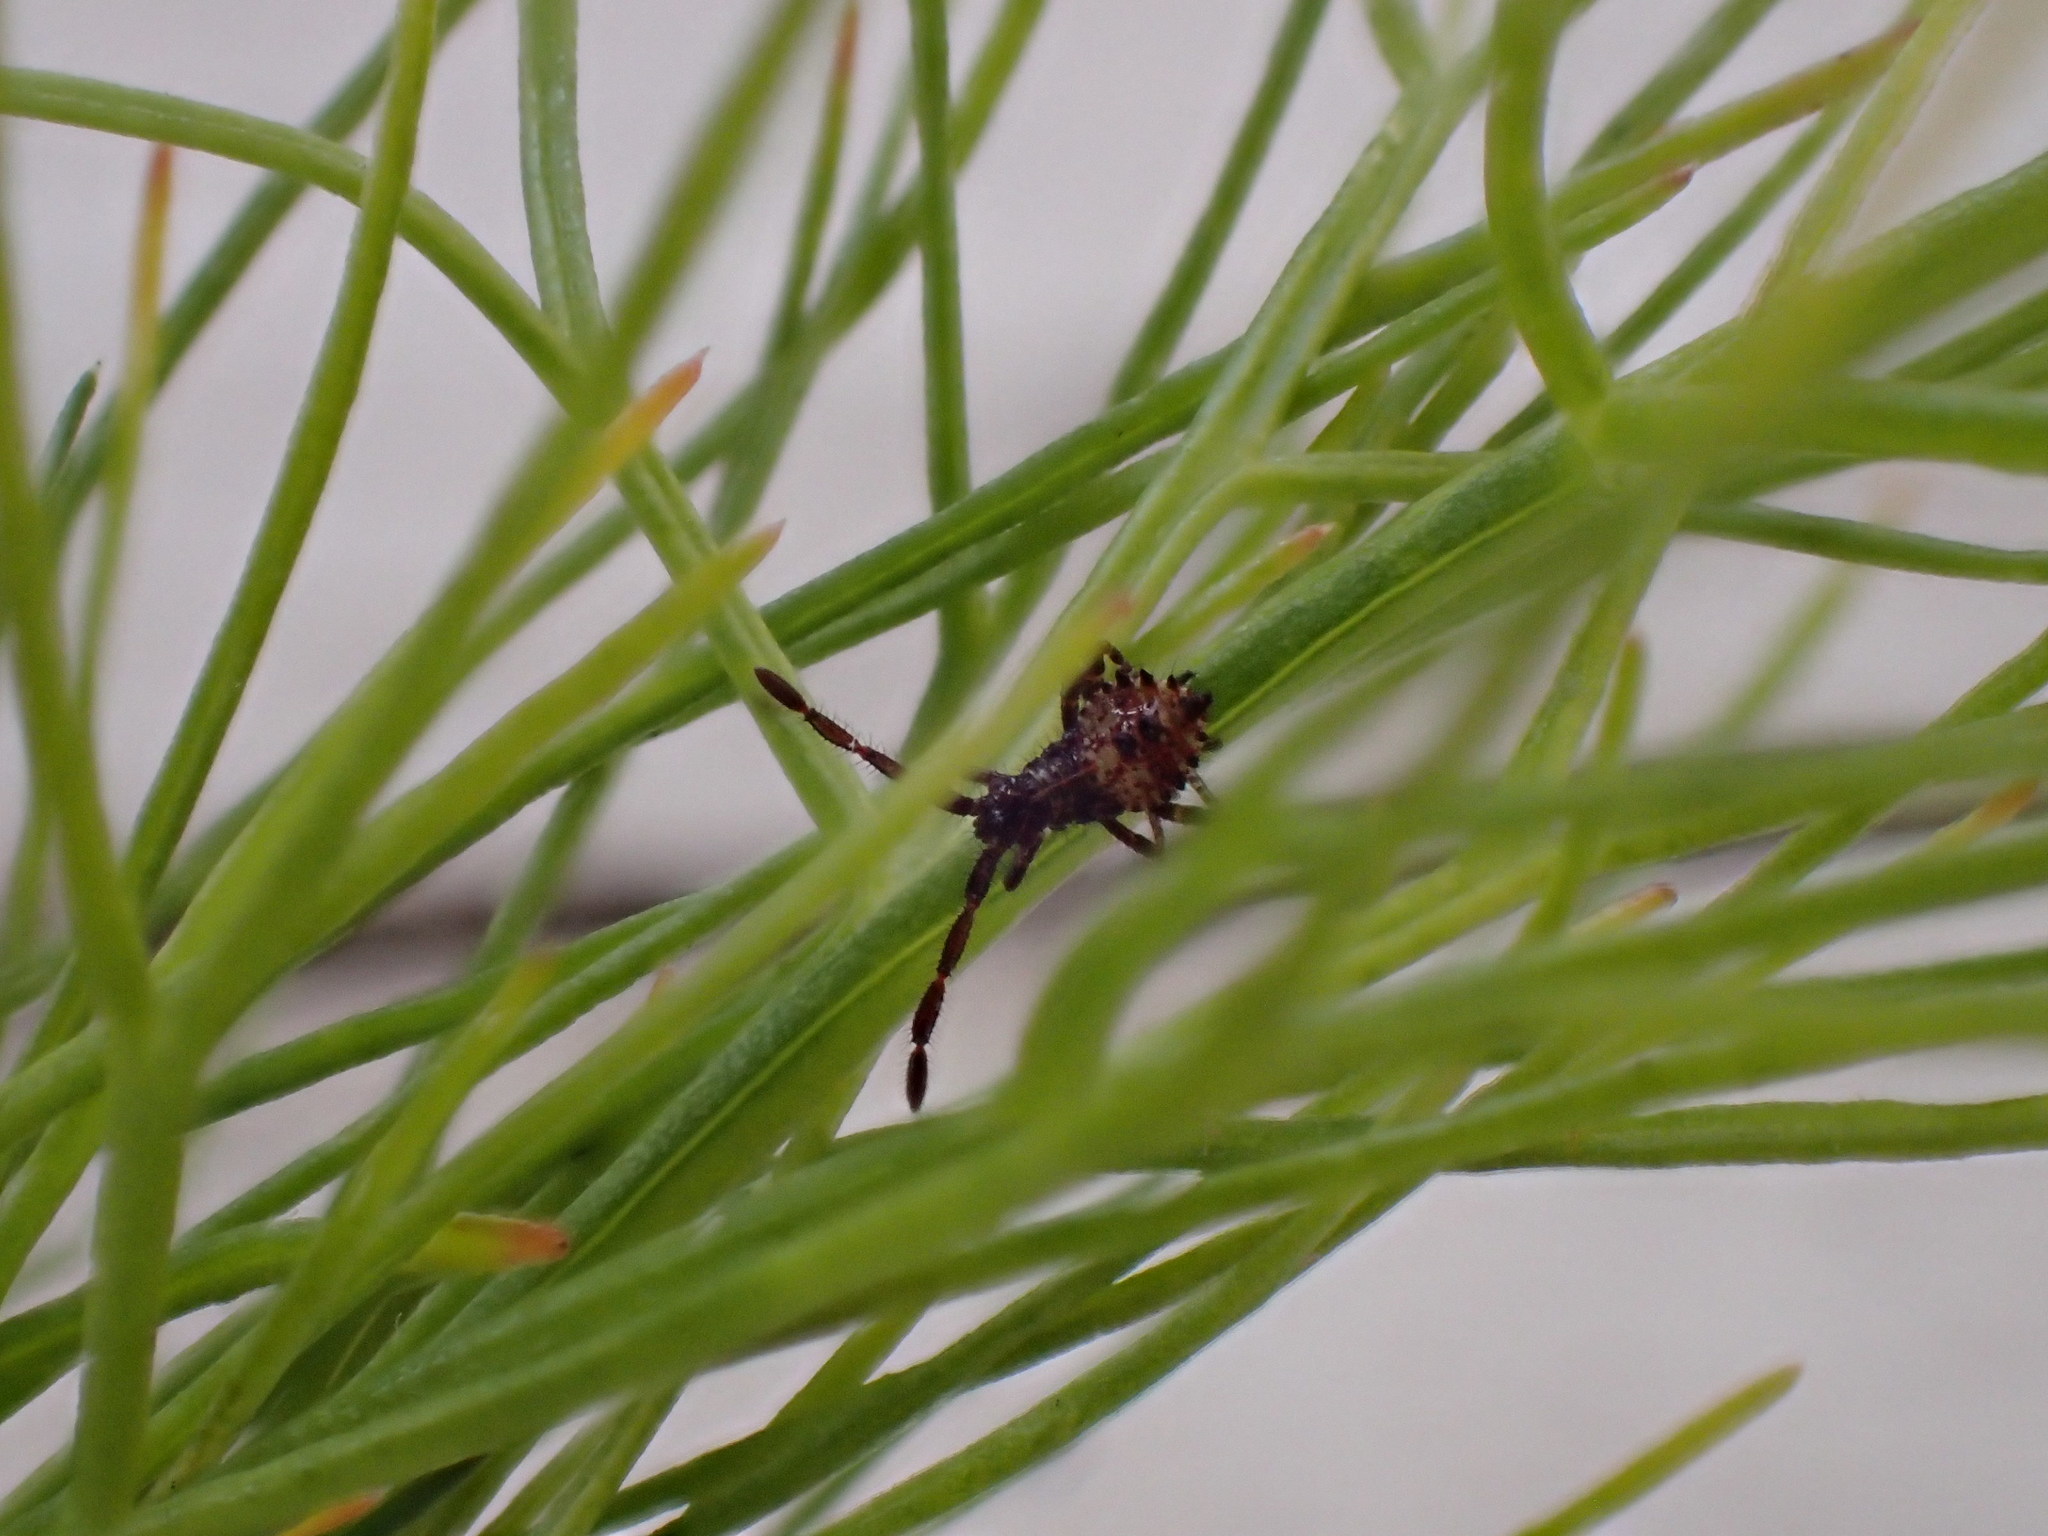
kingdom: Animalia
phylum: Arthropoda
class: Insecta
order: Hemiptera
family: Coreidae
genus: Coreus
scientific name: Coreus marginatus
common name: Dock bug
